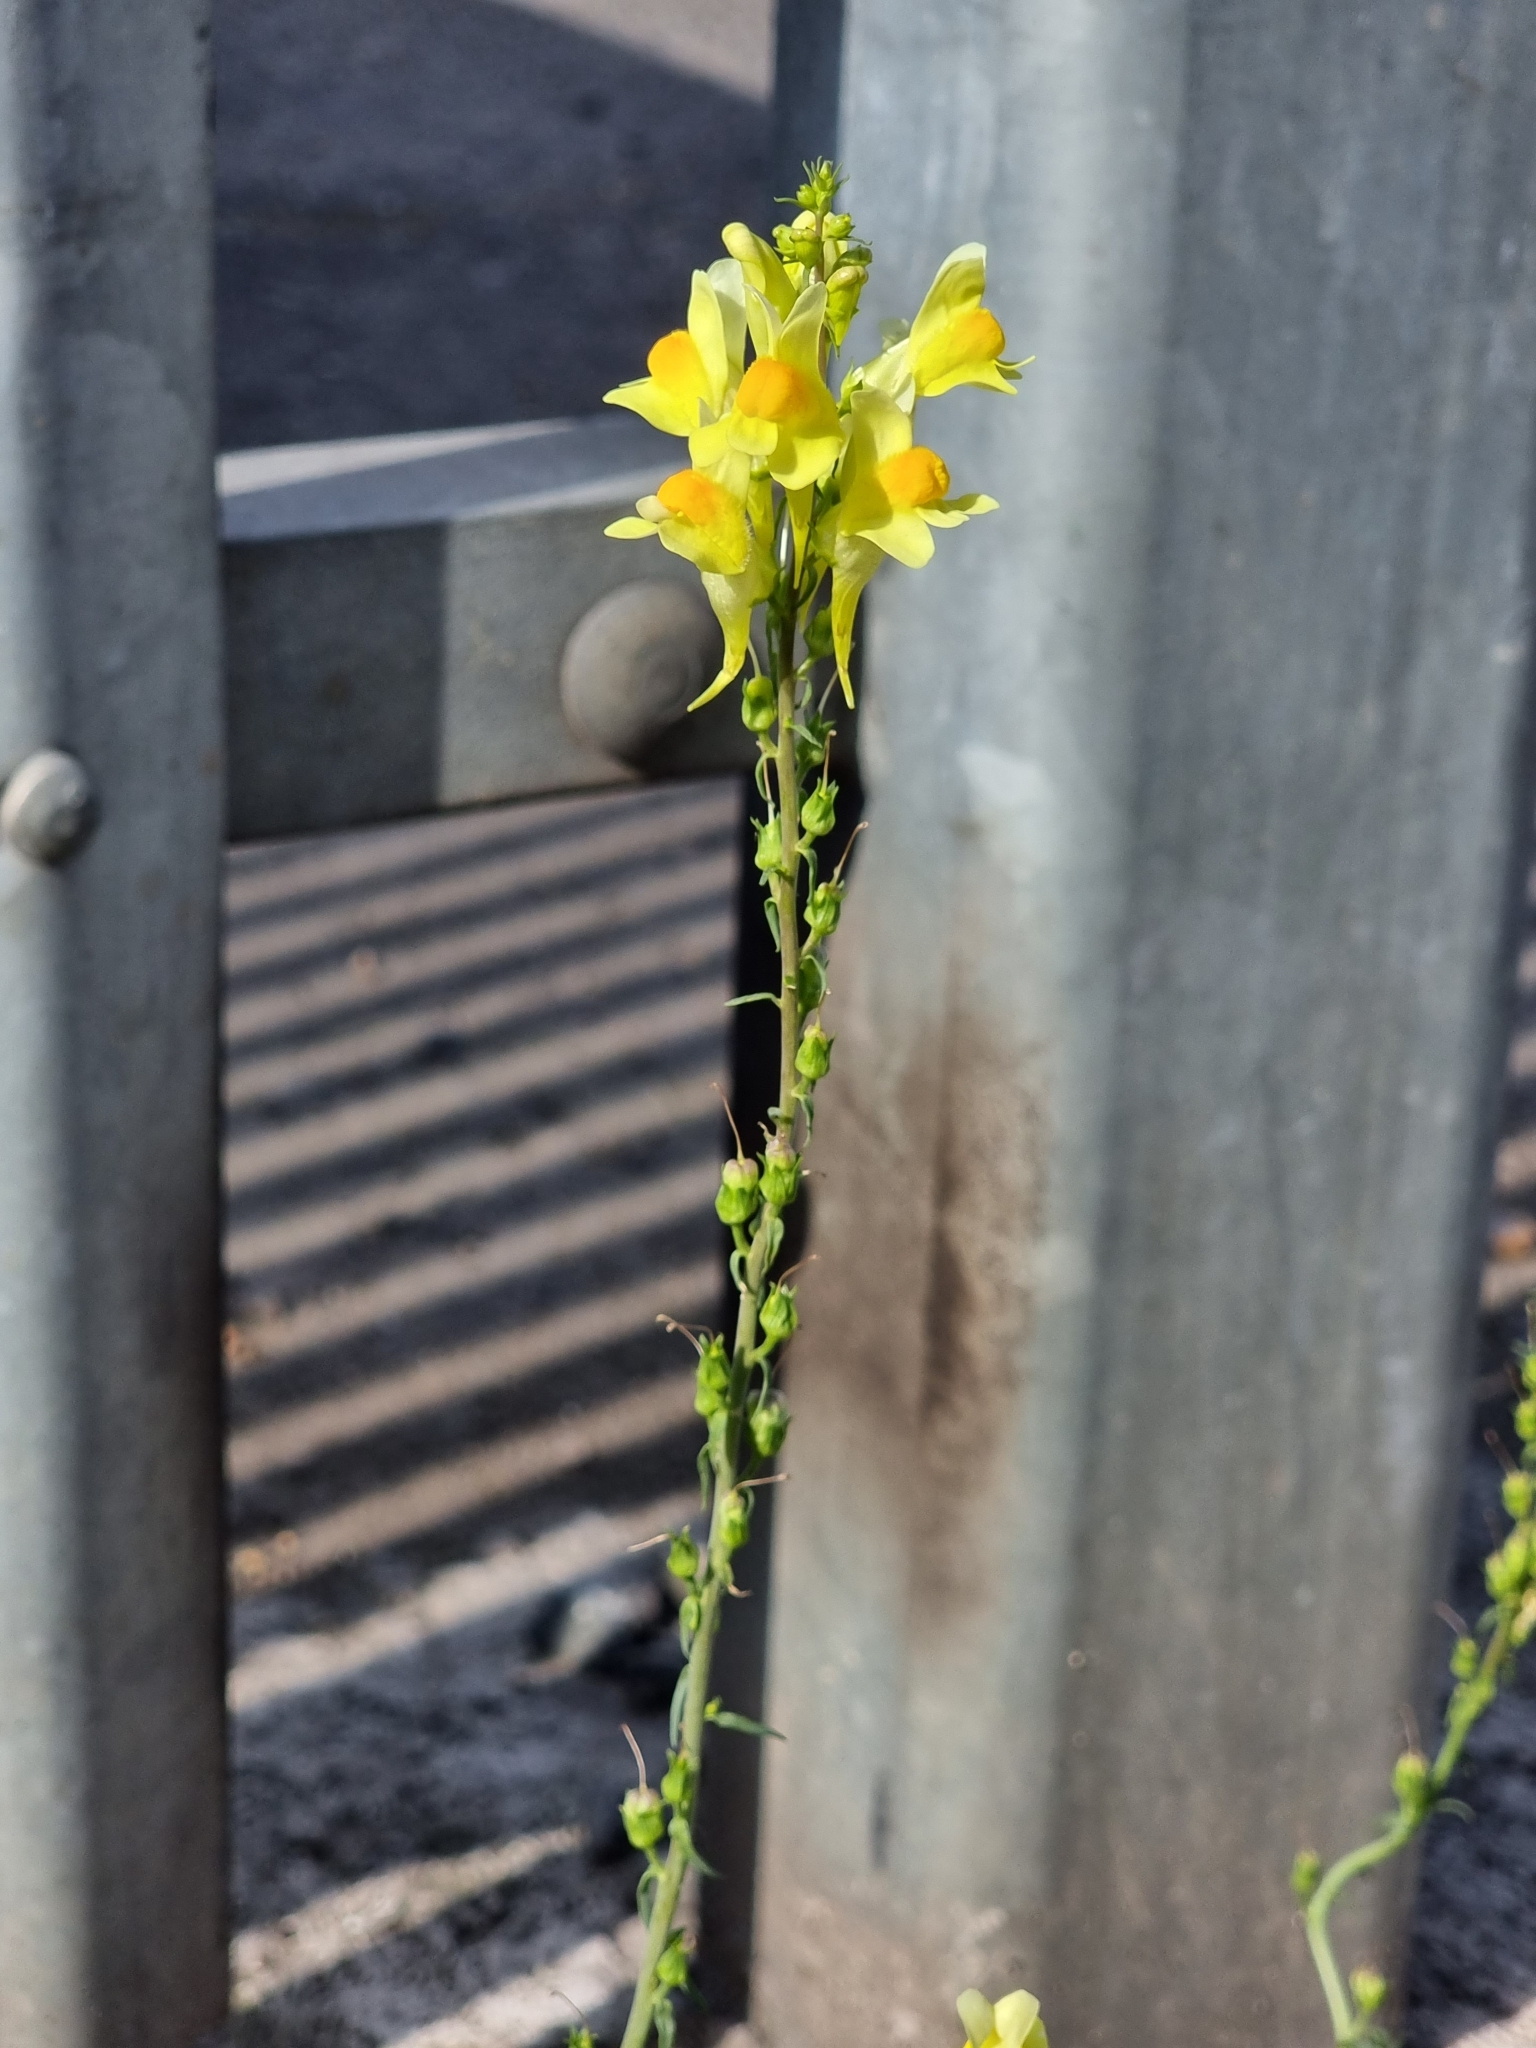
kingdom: Plantae
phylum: Tracheophyta
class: Magnoliopsida
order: Lamiales
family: Plantaginaceae
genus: Linaria
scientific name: Linaria vulgaris
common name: Butter and eggs
